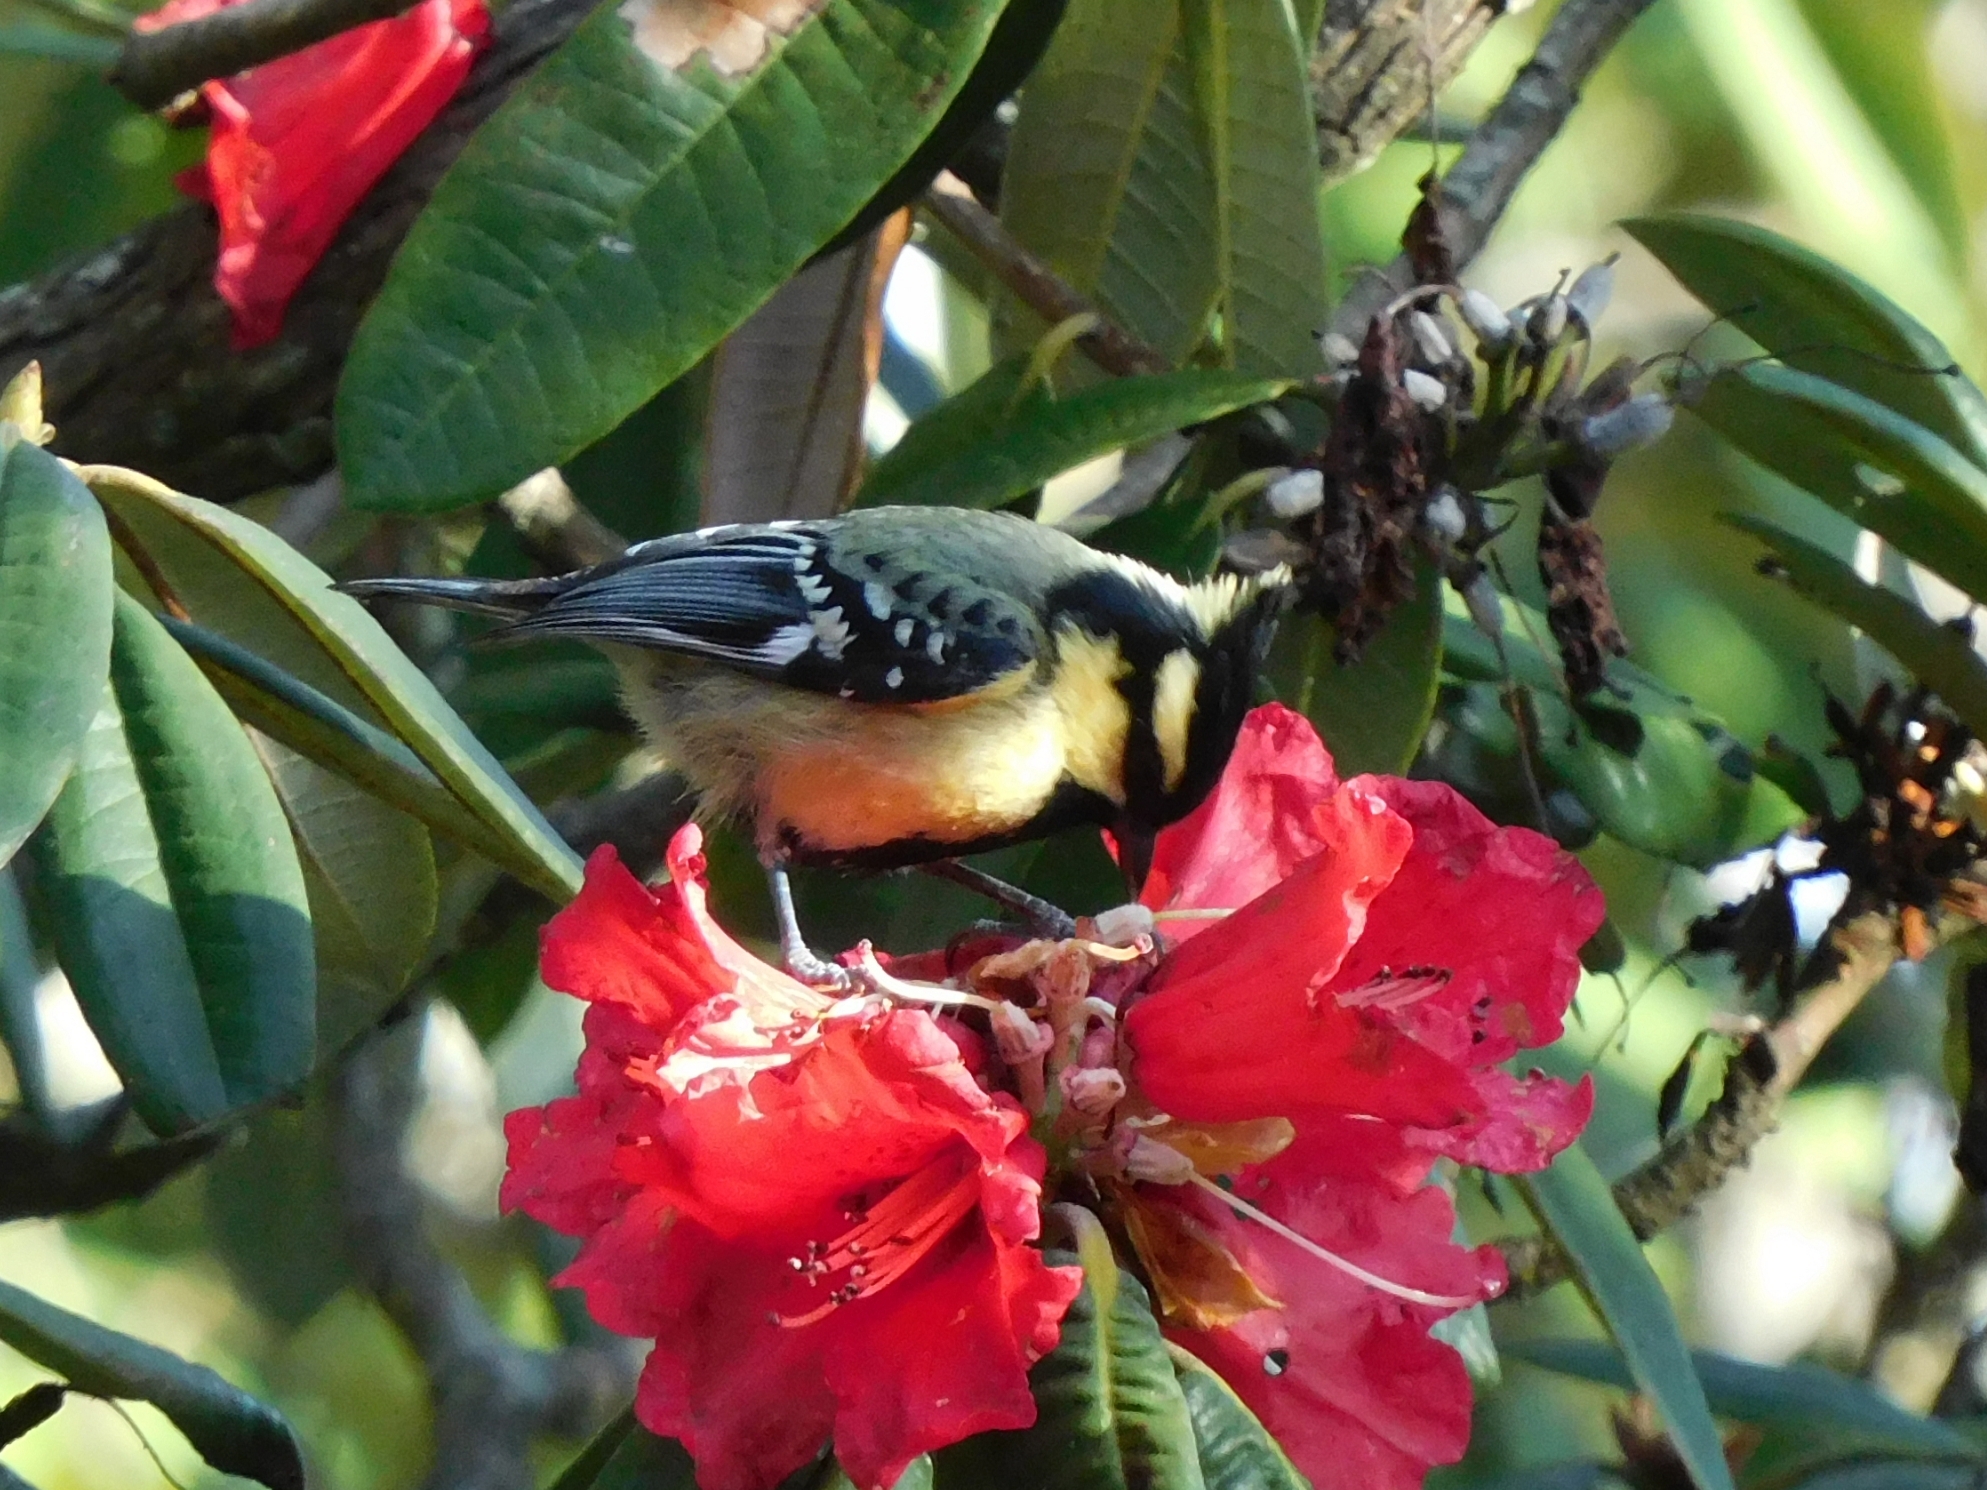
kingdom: Animalia
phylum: Chordata
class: Aves
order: Passeriformes
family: Paridae
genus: Parus
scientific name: Parus xanthogenys
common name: Black-lored tit
